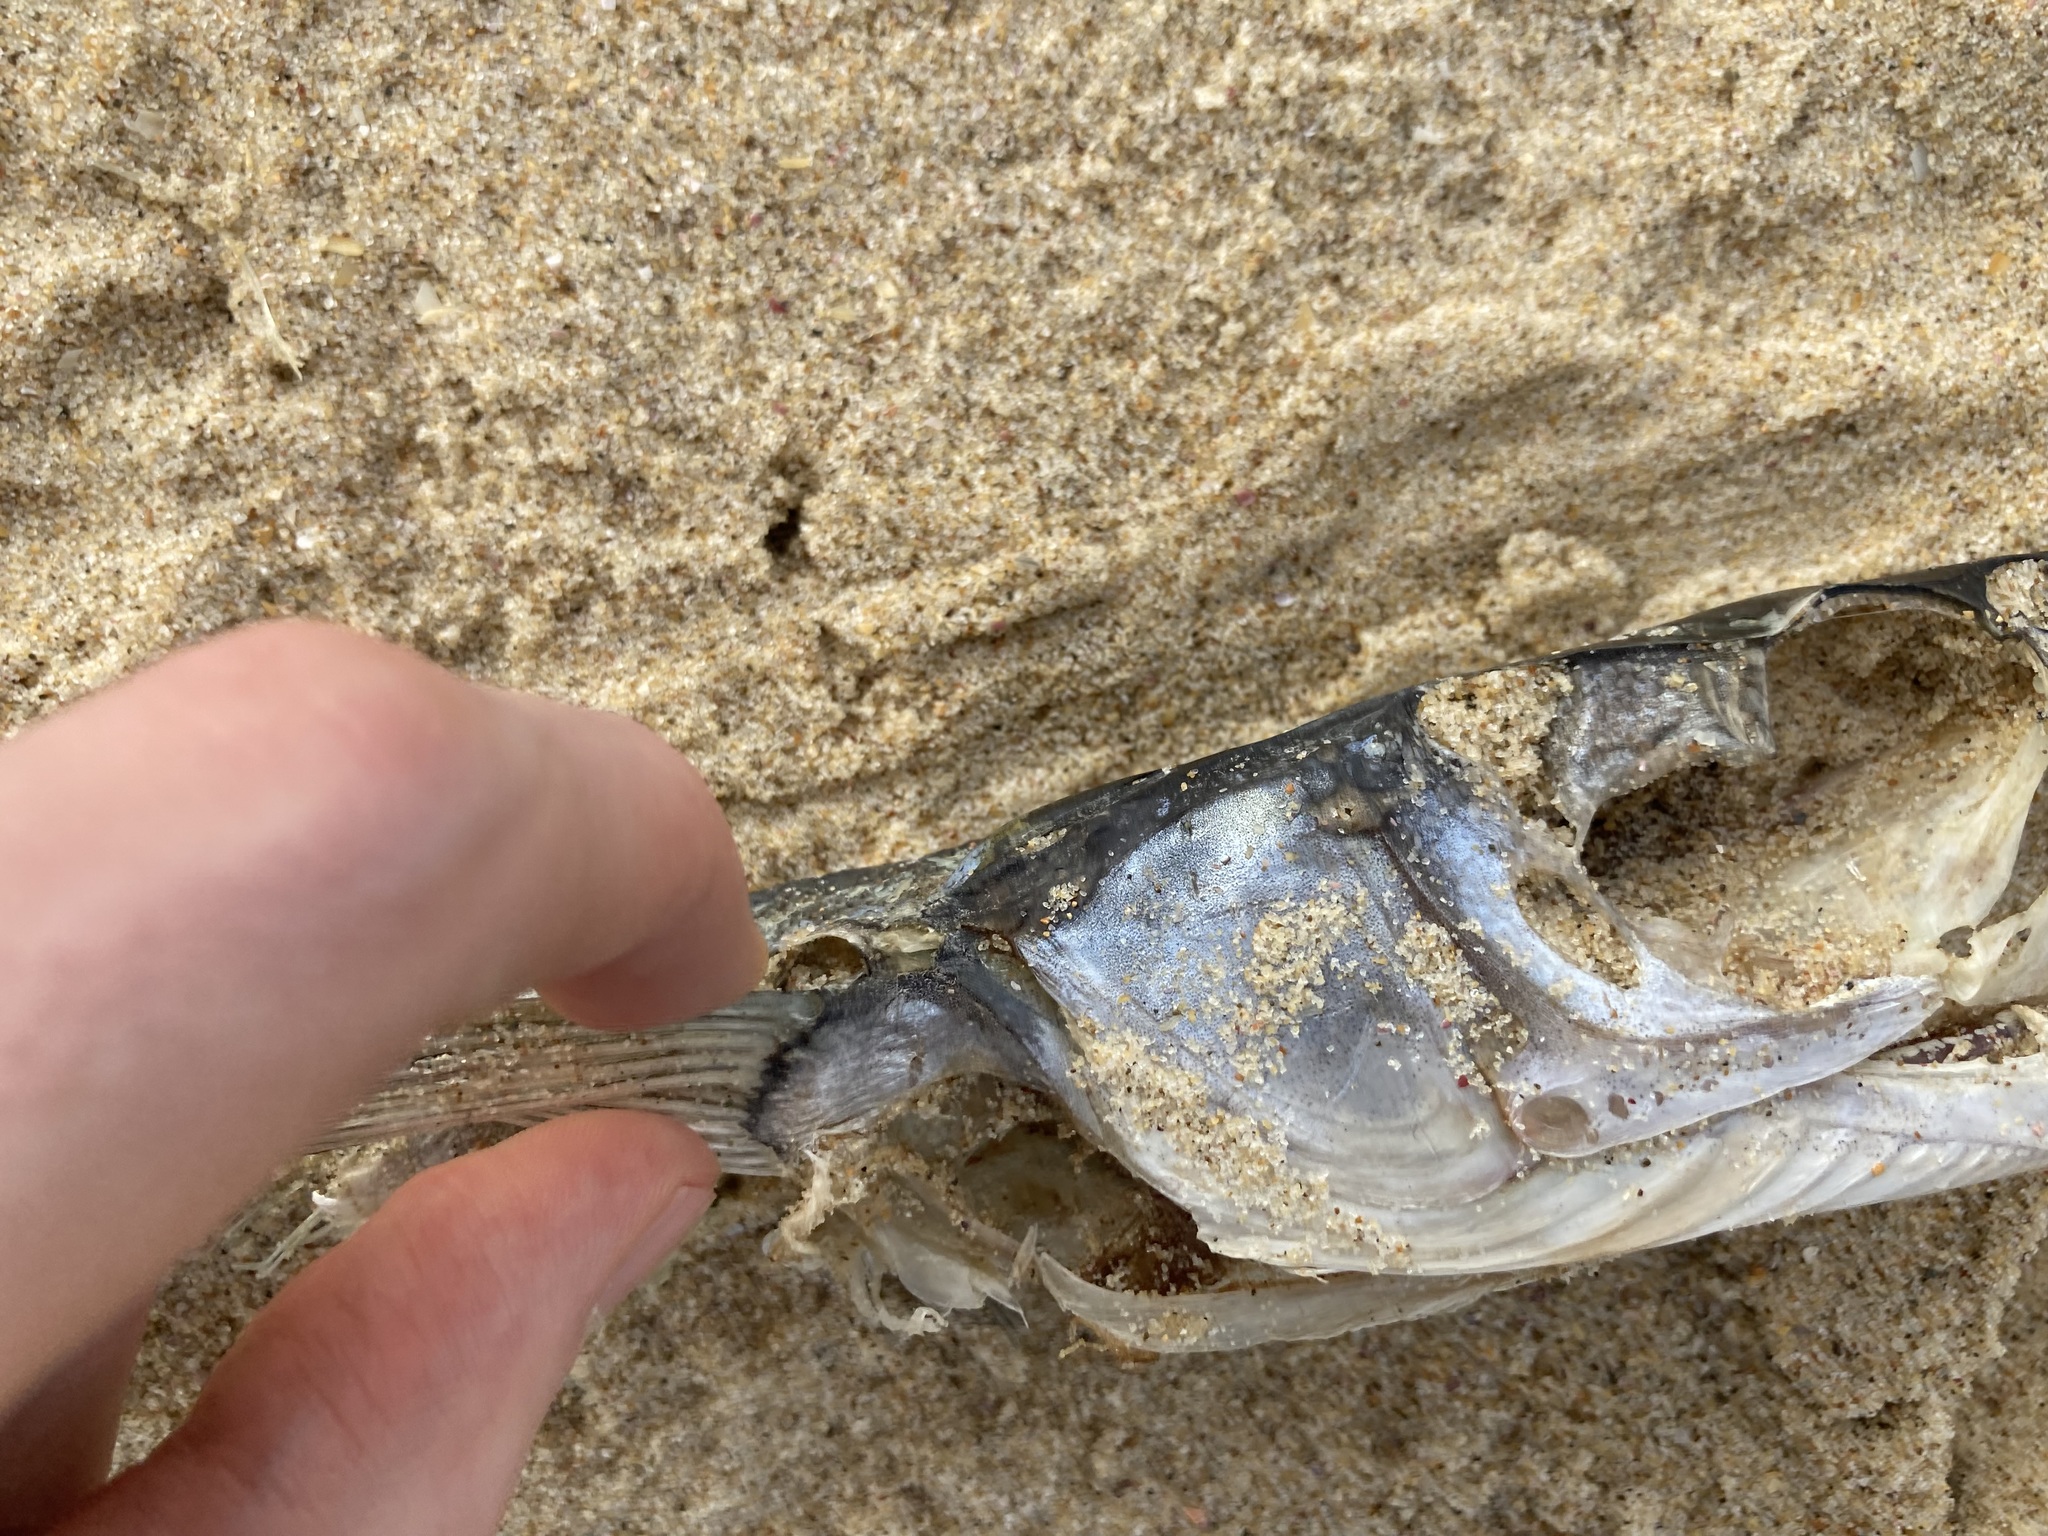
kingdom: Animalia
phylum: Chordata
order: Beloniformes
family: Belonidae
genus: Tylosurus
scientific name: Tylosurus gavialoides
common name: Stout longtom
